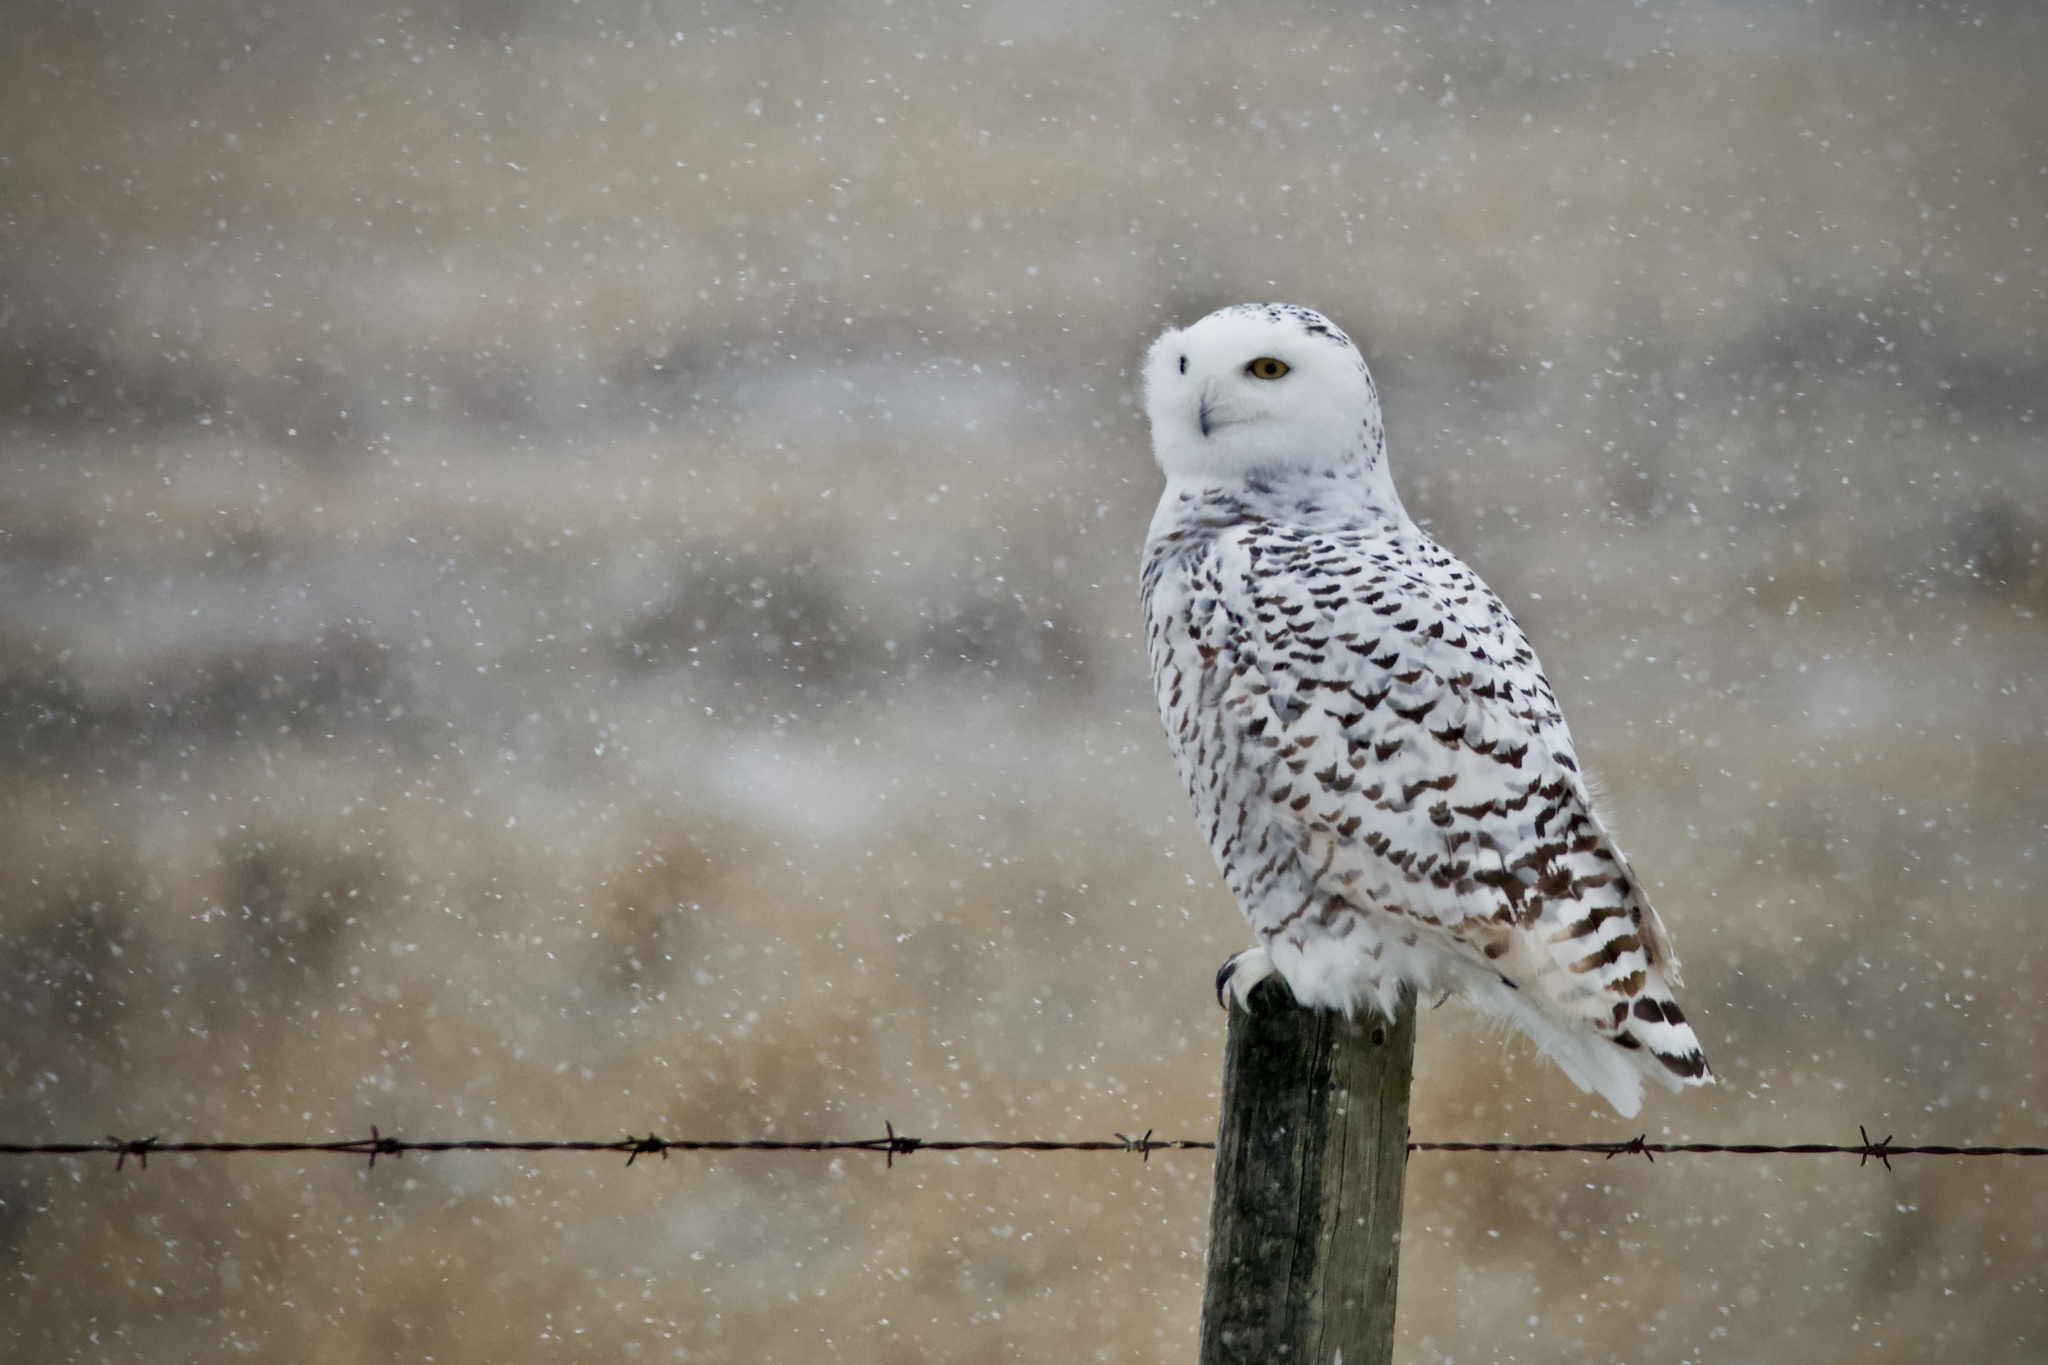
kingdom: Animalia
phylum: Chordata
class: Aves
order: Strigiformes
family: Strigidae
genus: Bubo
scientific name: Bubo scandiacus
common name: Snowy owl
